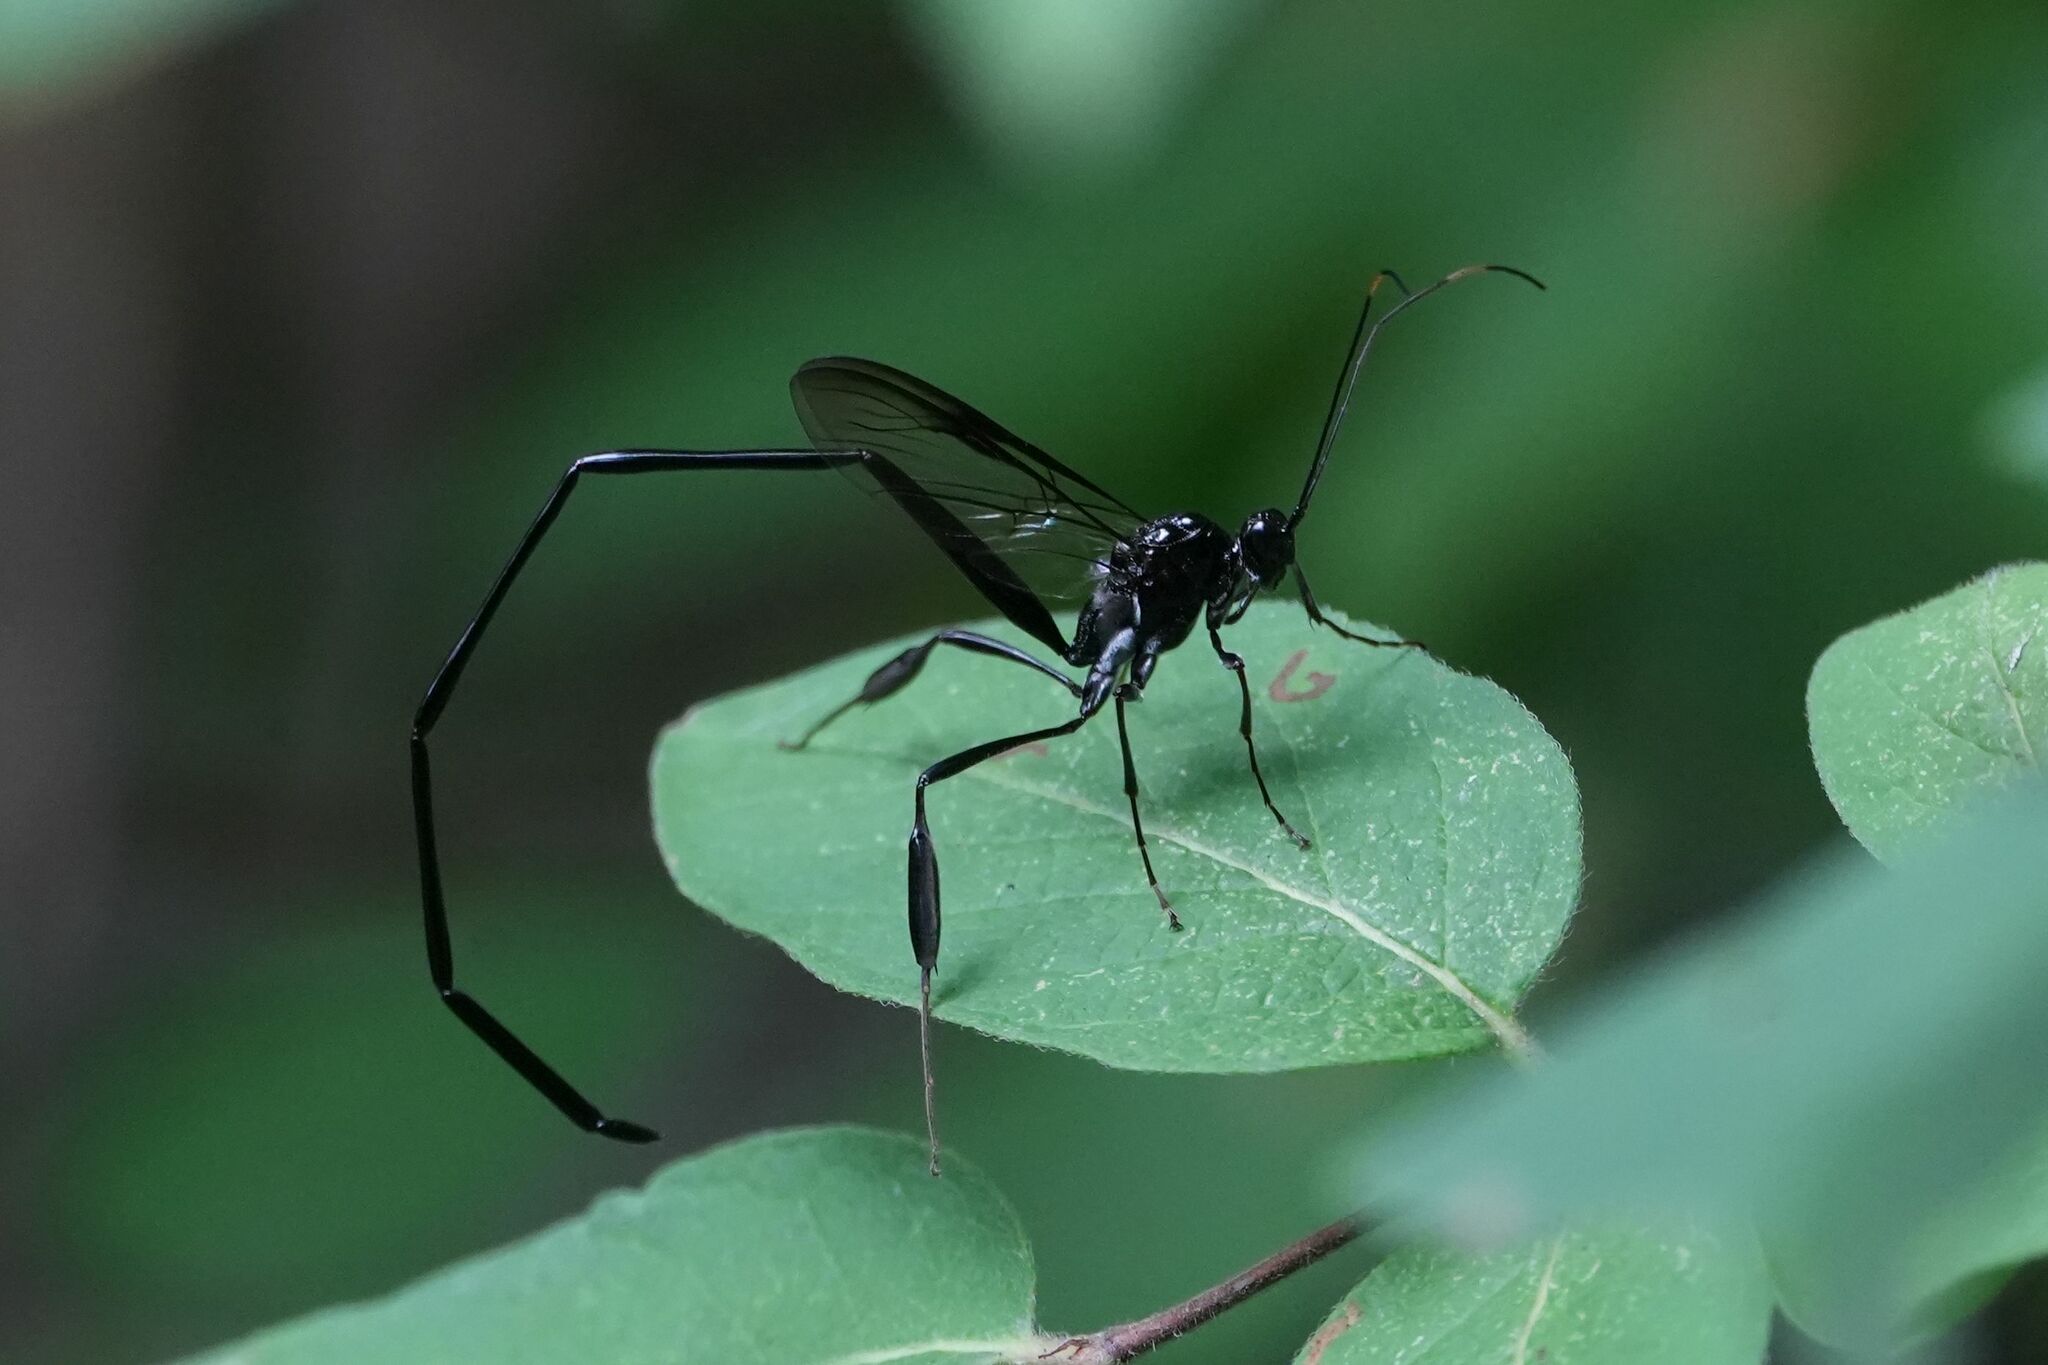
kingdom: Animalia
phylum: Arthropoda
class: Insecta
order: Hymenoptera
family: Pelecinidae
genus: Pelecinus
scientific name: Pelecinus polyturator
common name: American pelecinid wasp
